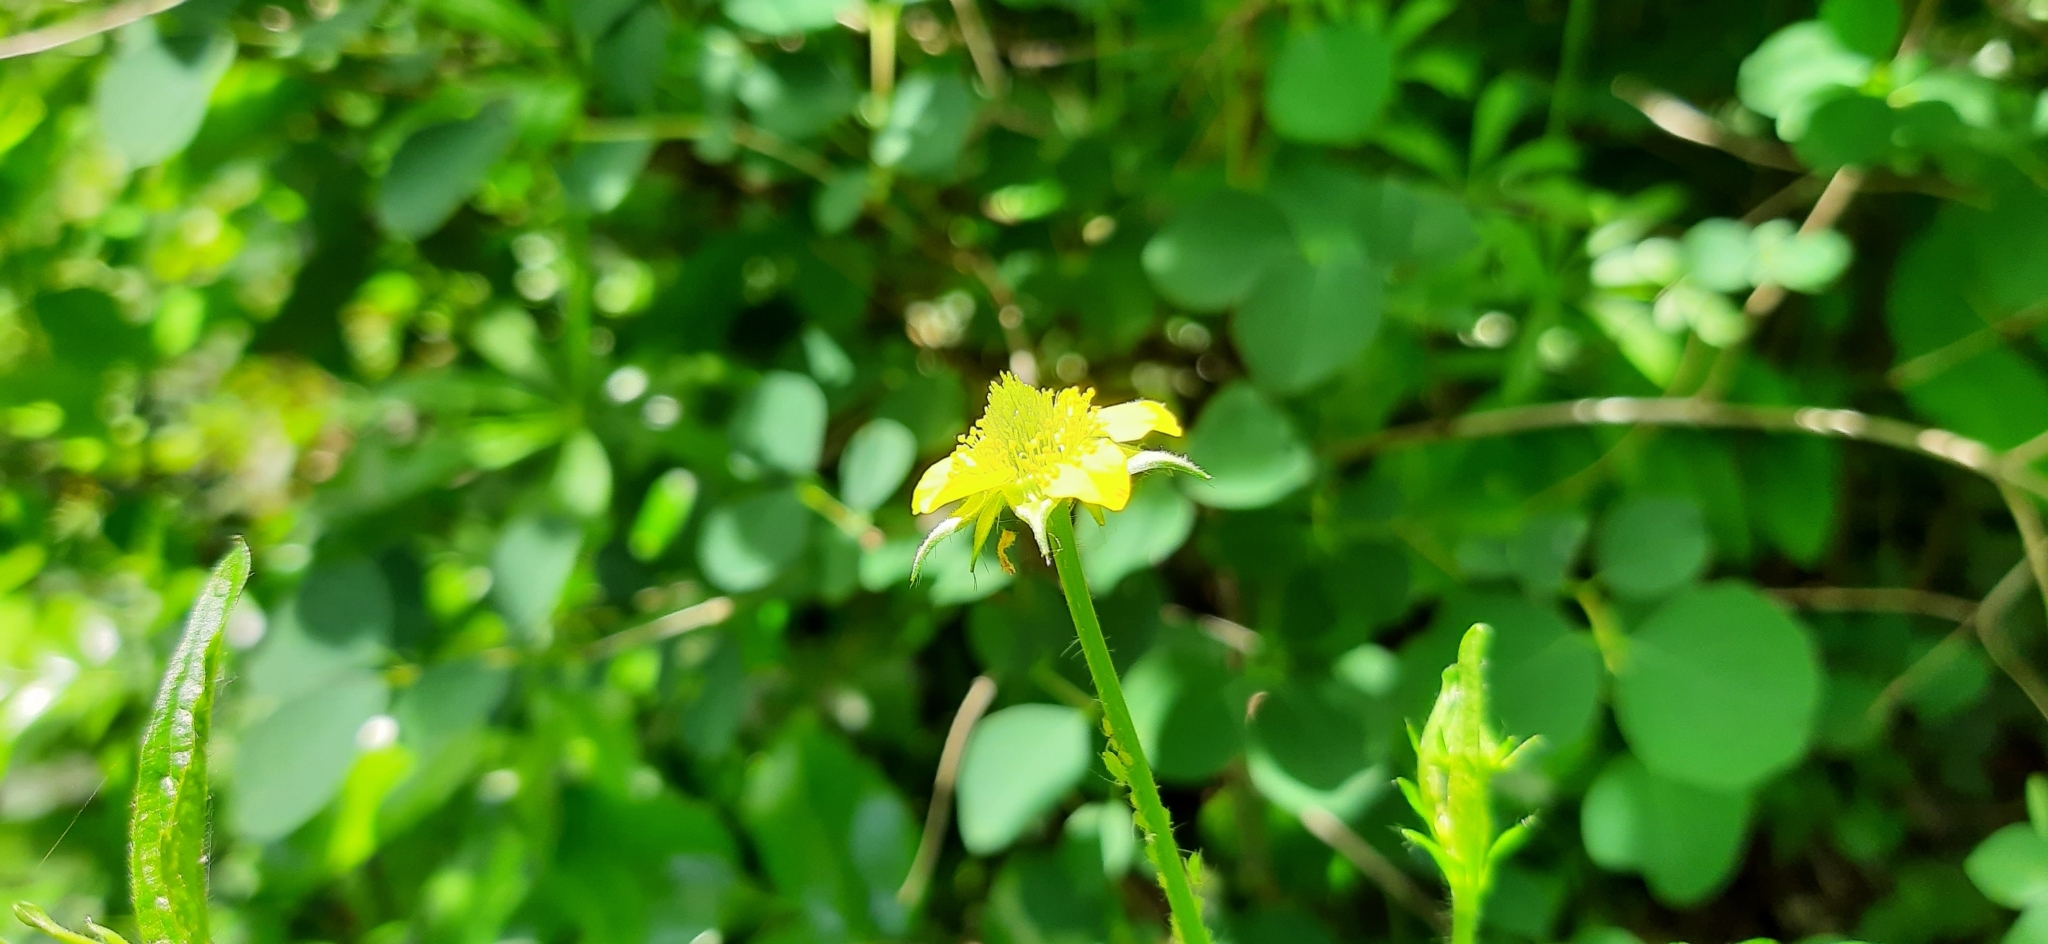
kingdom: Plantae
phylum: Tracheophyta
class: Magnoliopsida
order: Rosales
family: Rosaceae
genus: Geum
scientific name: Geum urbanum
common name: Wood avens
